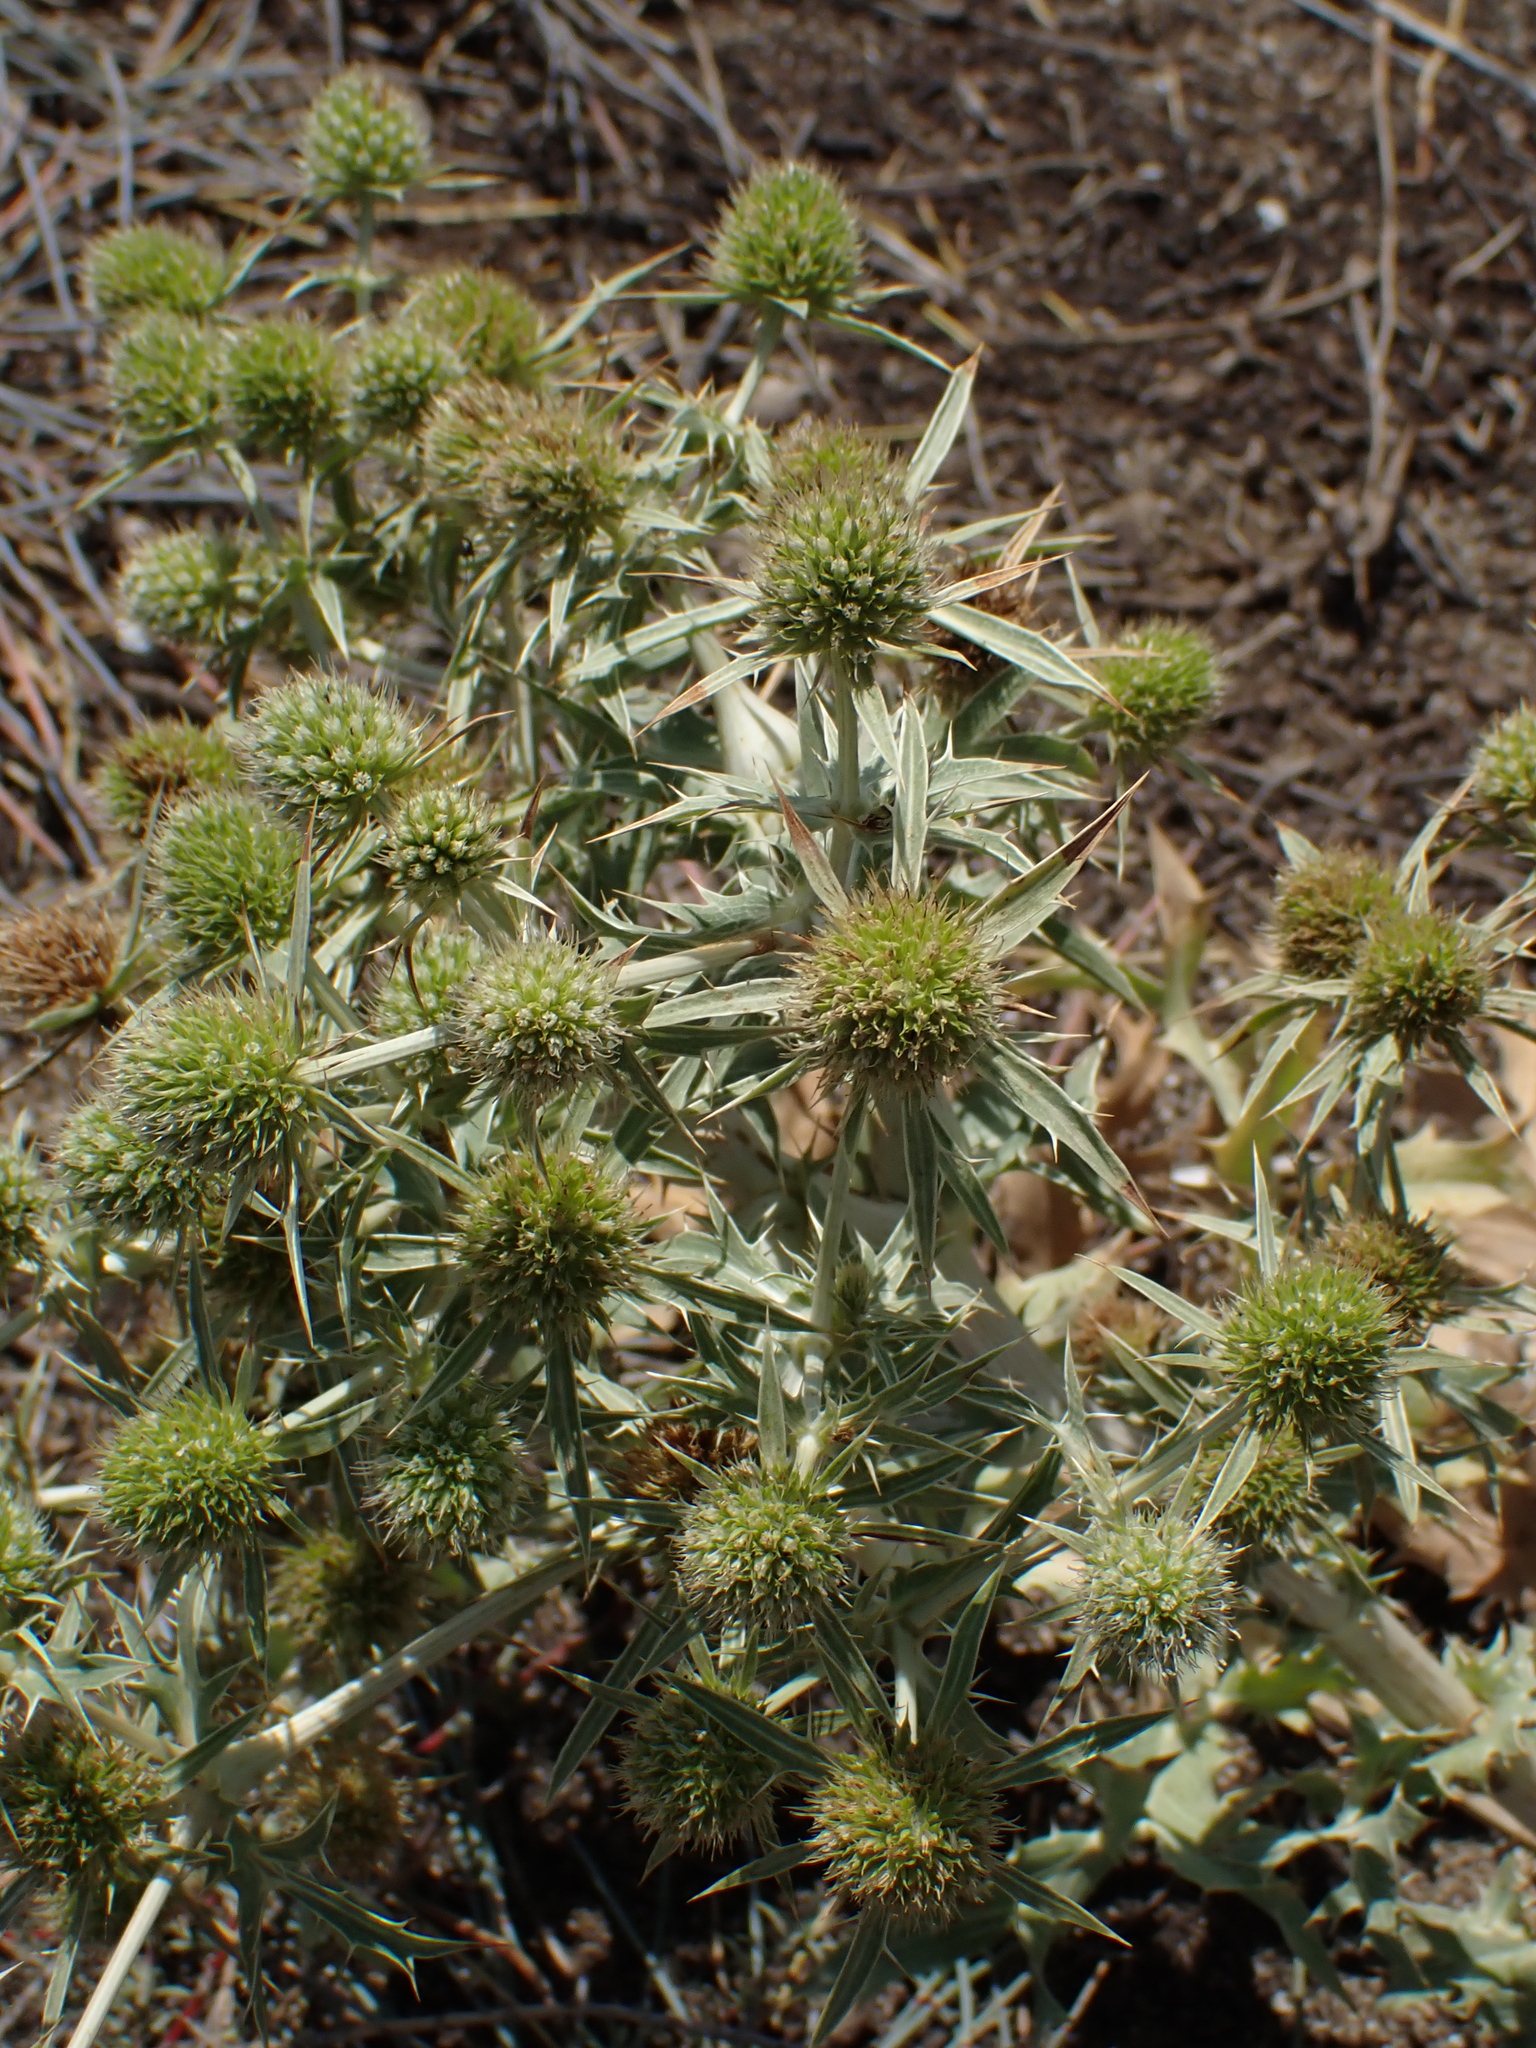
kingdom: Plantae
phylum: Tracheophyta
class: Magnoliopsida
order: Apiales
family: Apiaceae
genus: Eryngium
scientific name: Eryngium campestre
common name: Field eryngo
